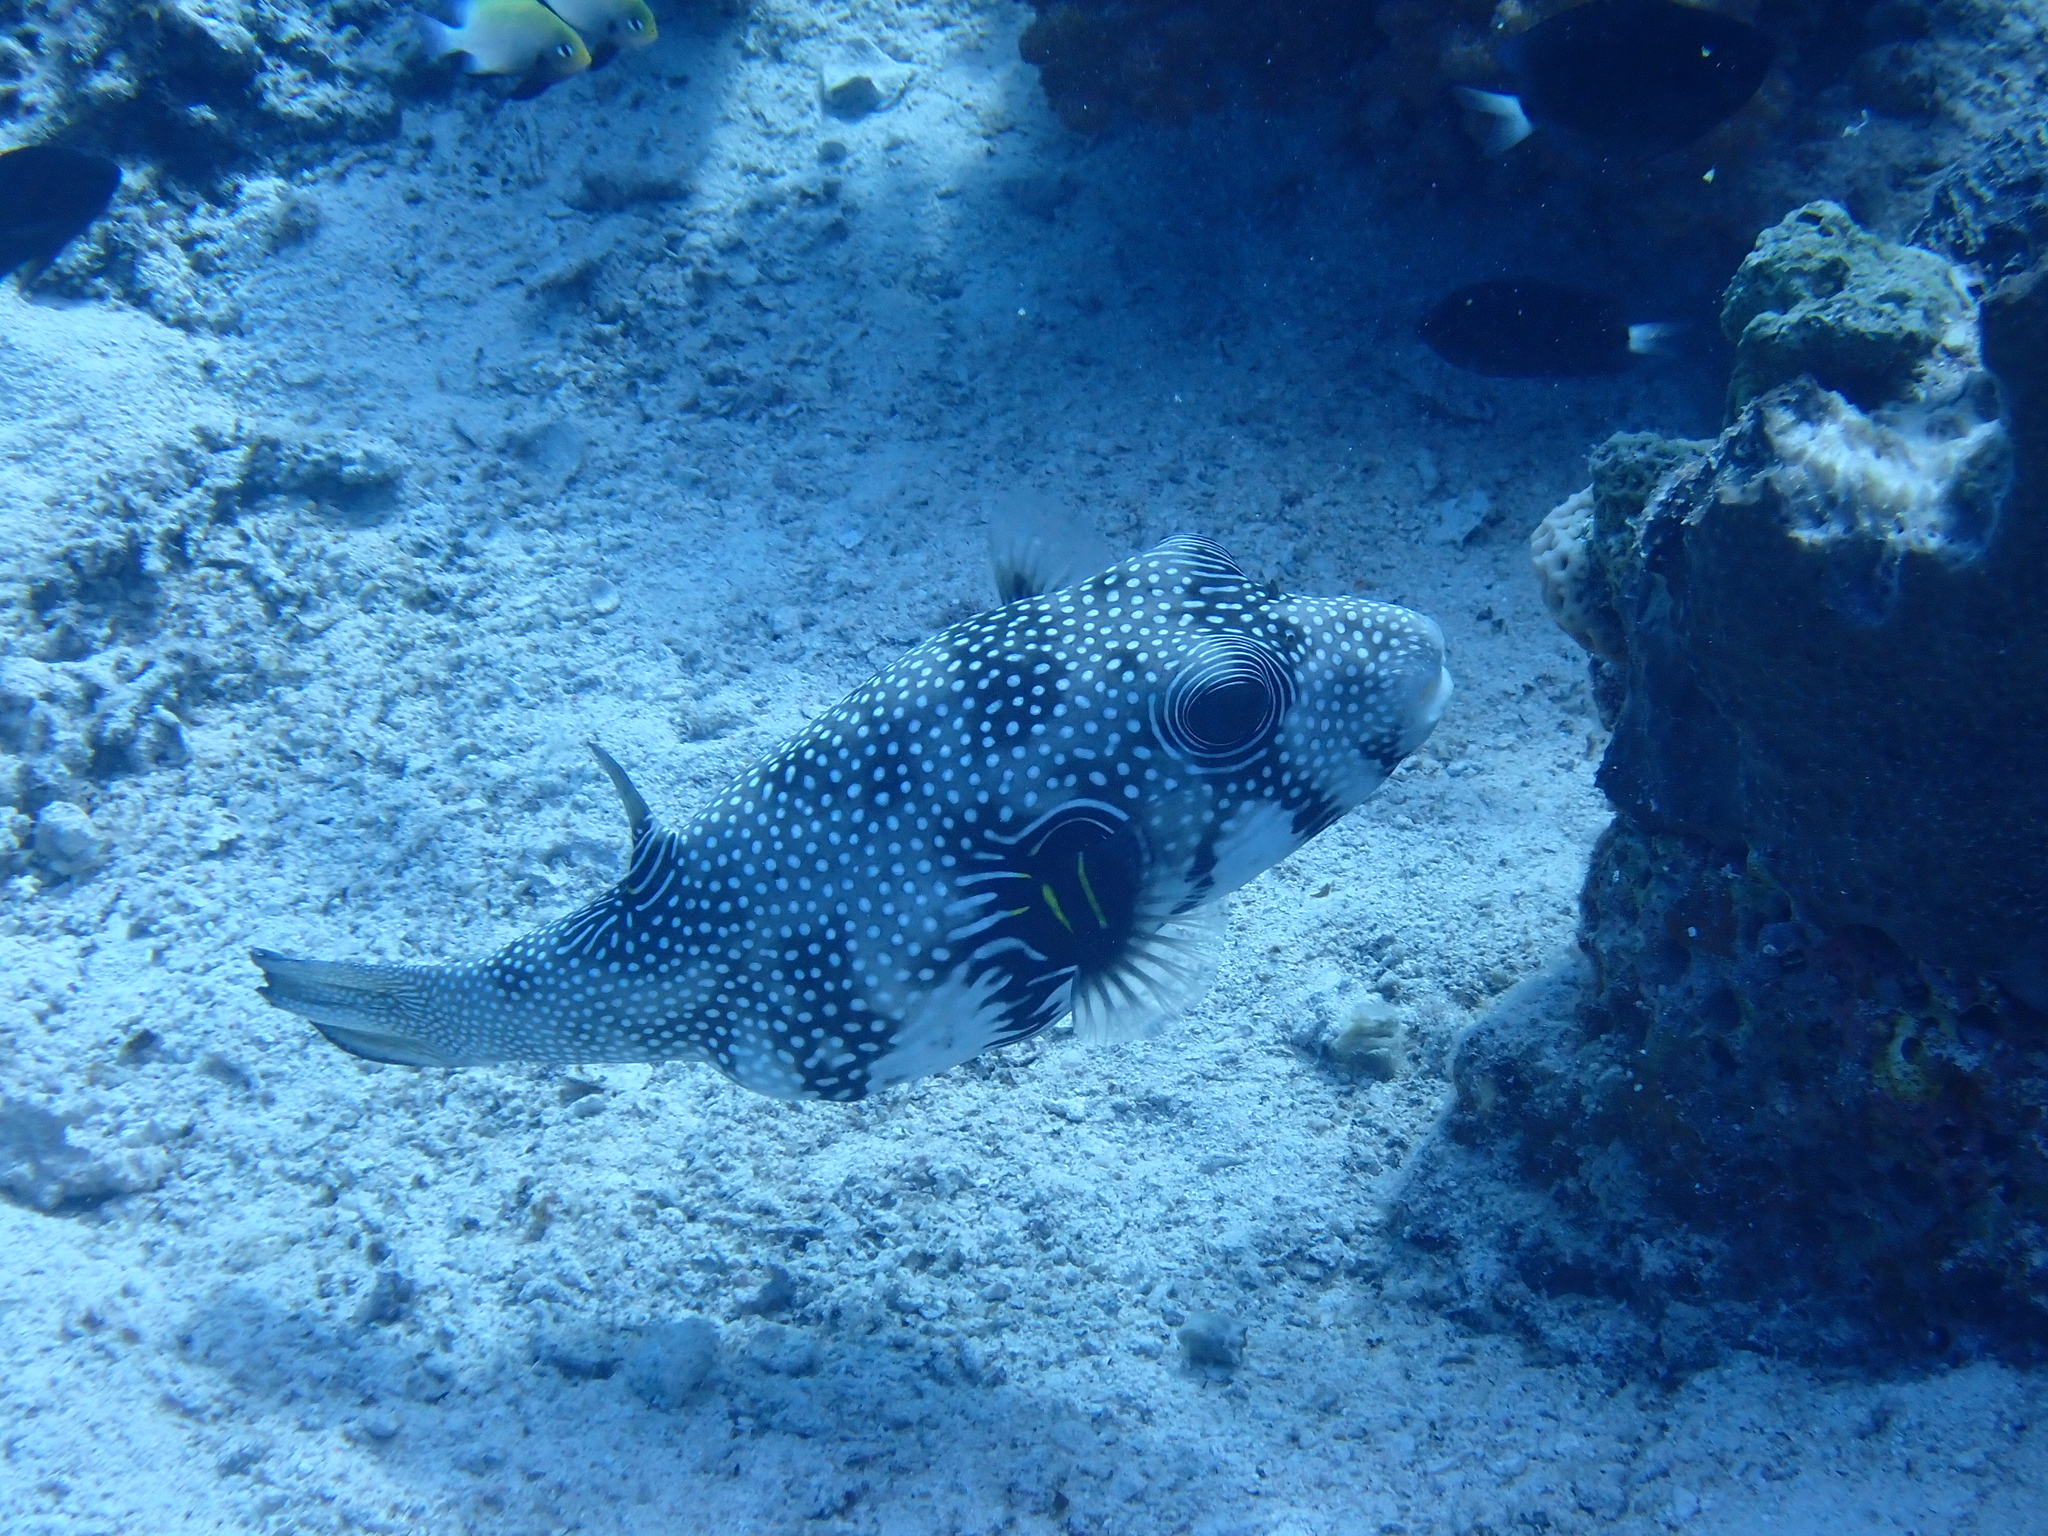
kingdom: Animalia
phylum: Chordata
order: Tetraodontiformes
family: Tetraodontidae
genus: Arothron
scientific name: Arothron hispidus
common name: Stripebelly puffer
